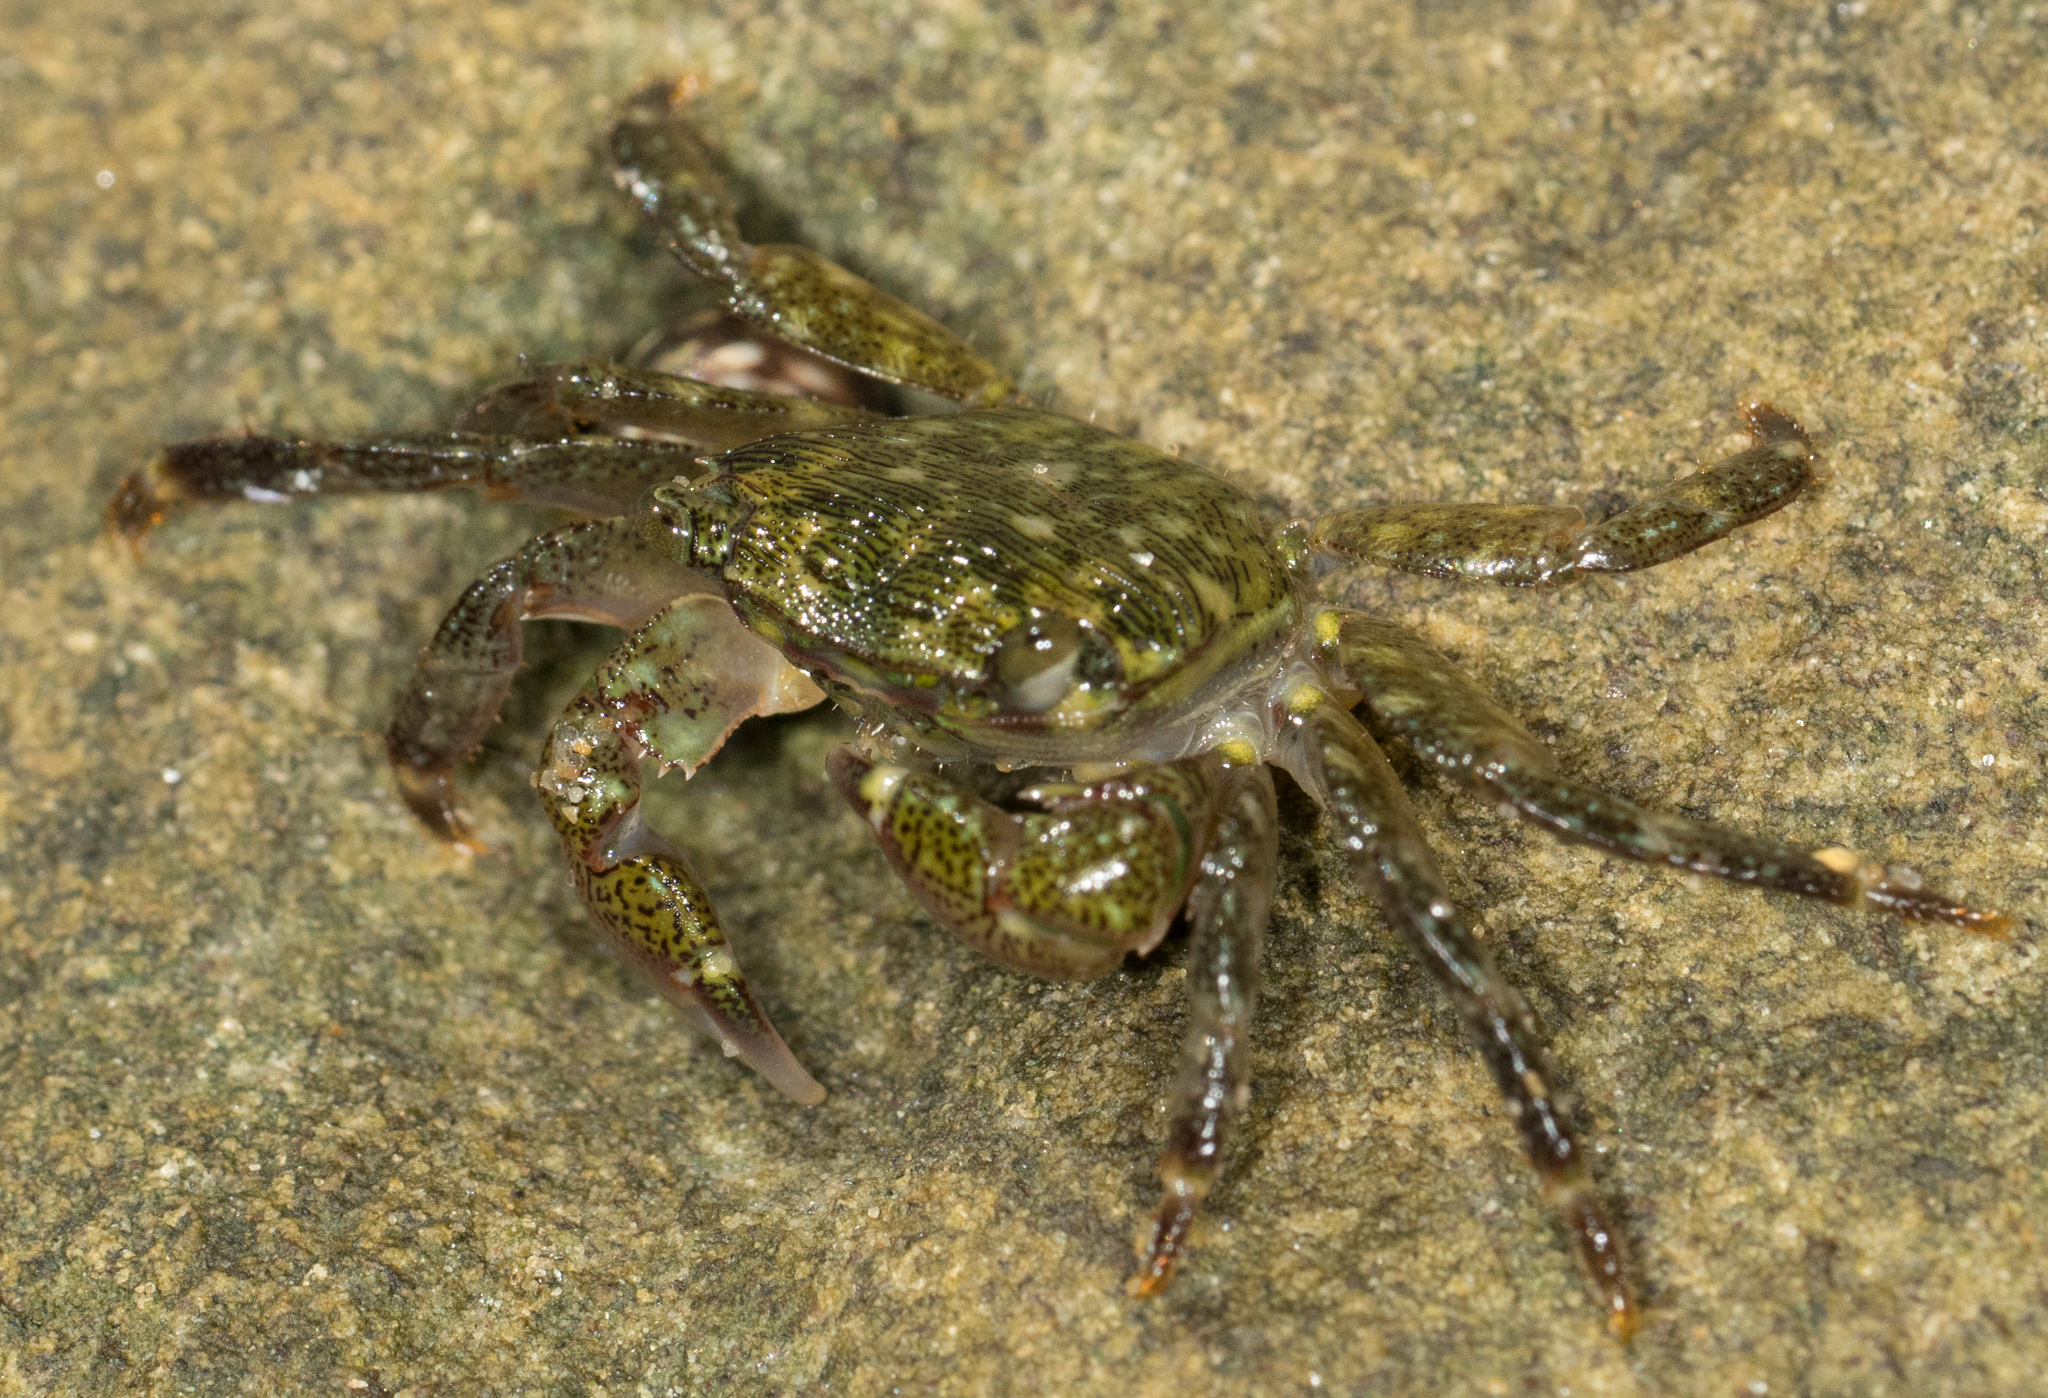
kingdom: Animalia
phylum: Arthropoda
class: Malacostraca
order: Decapoda
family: Grapsidae
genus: Pachygrapsus
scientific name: Pachygrapsus crassipes
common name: Striped shore crab
